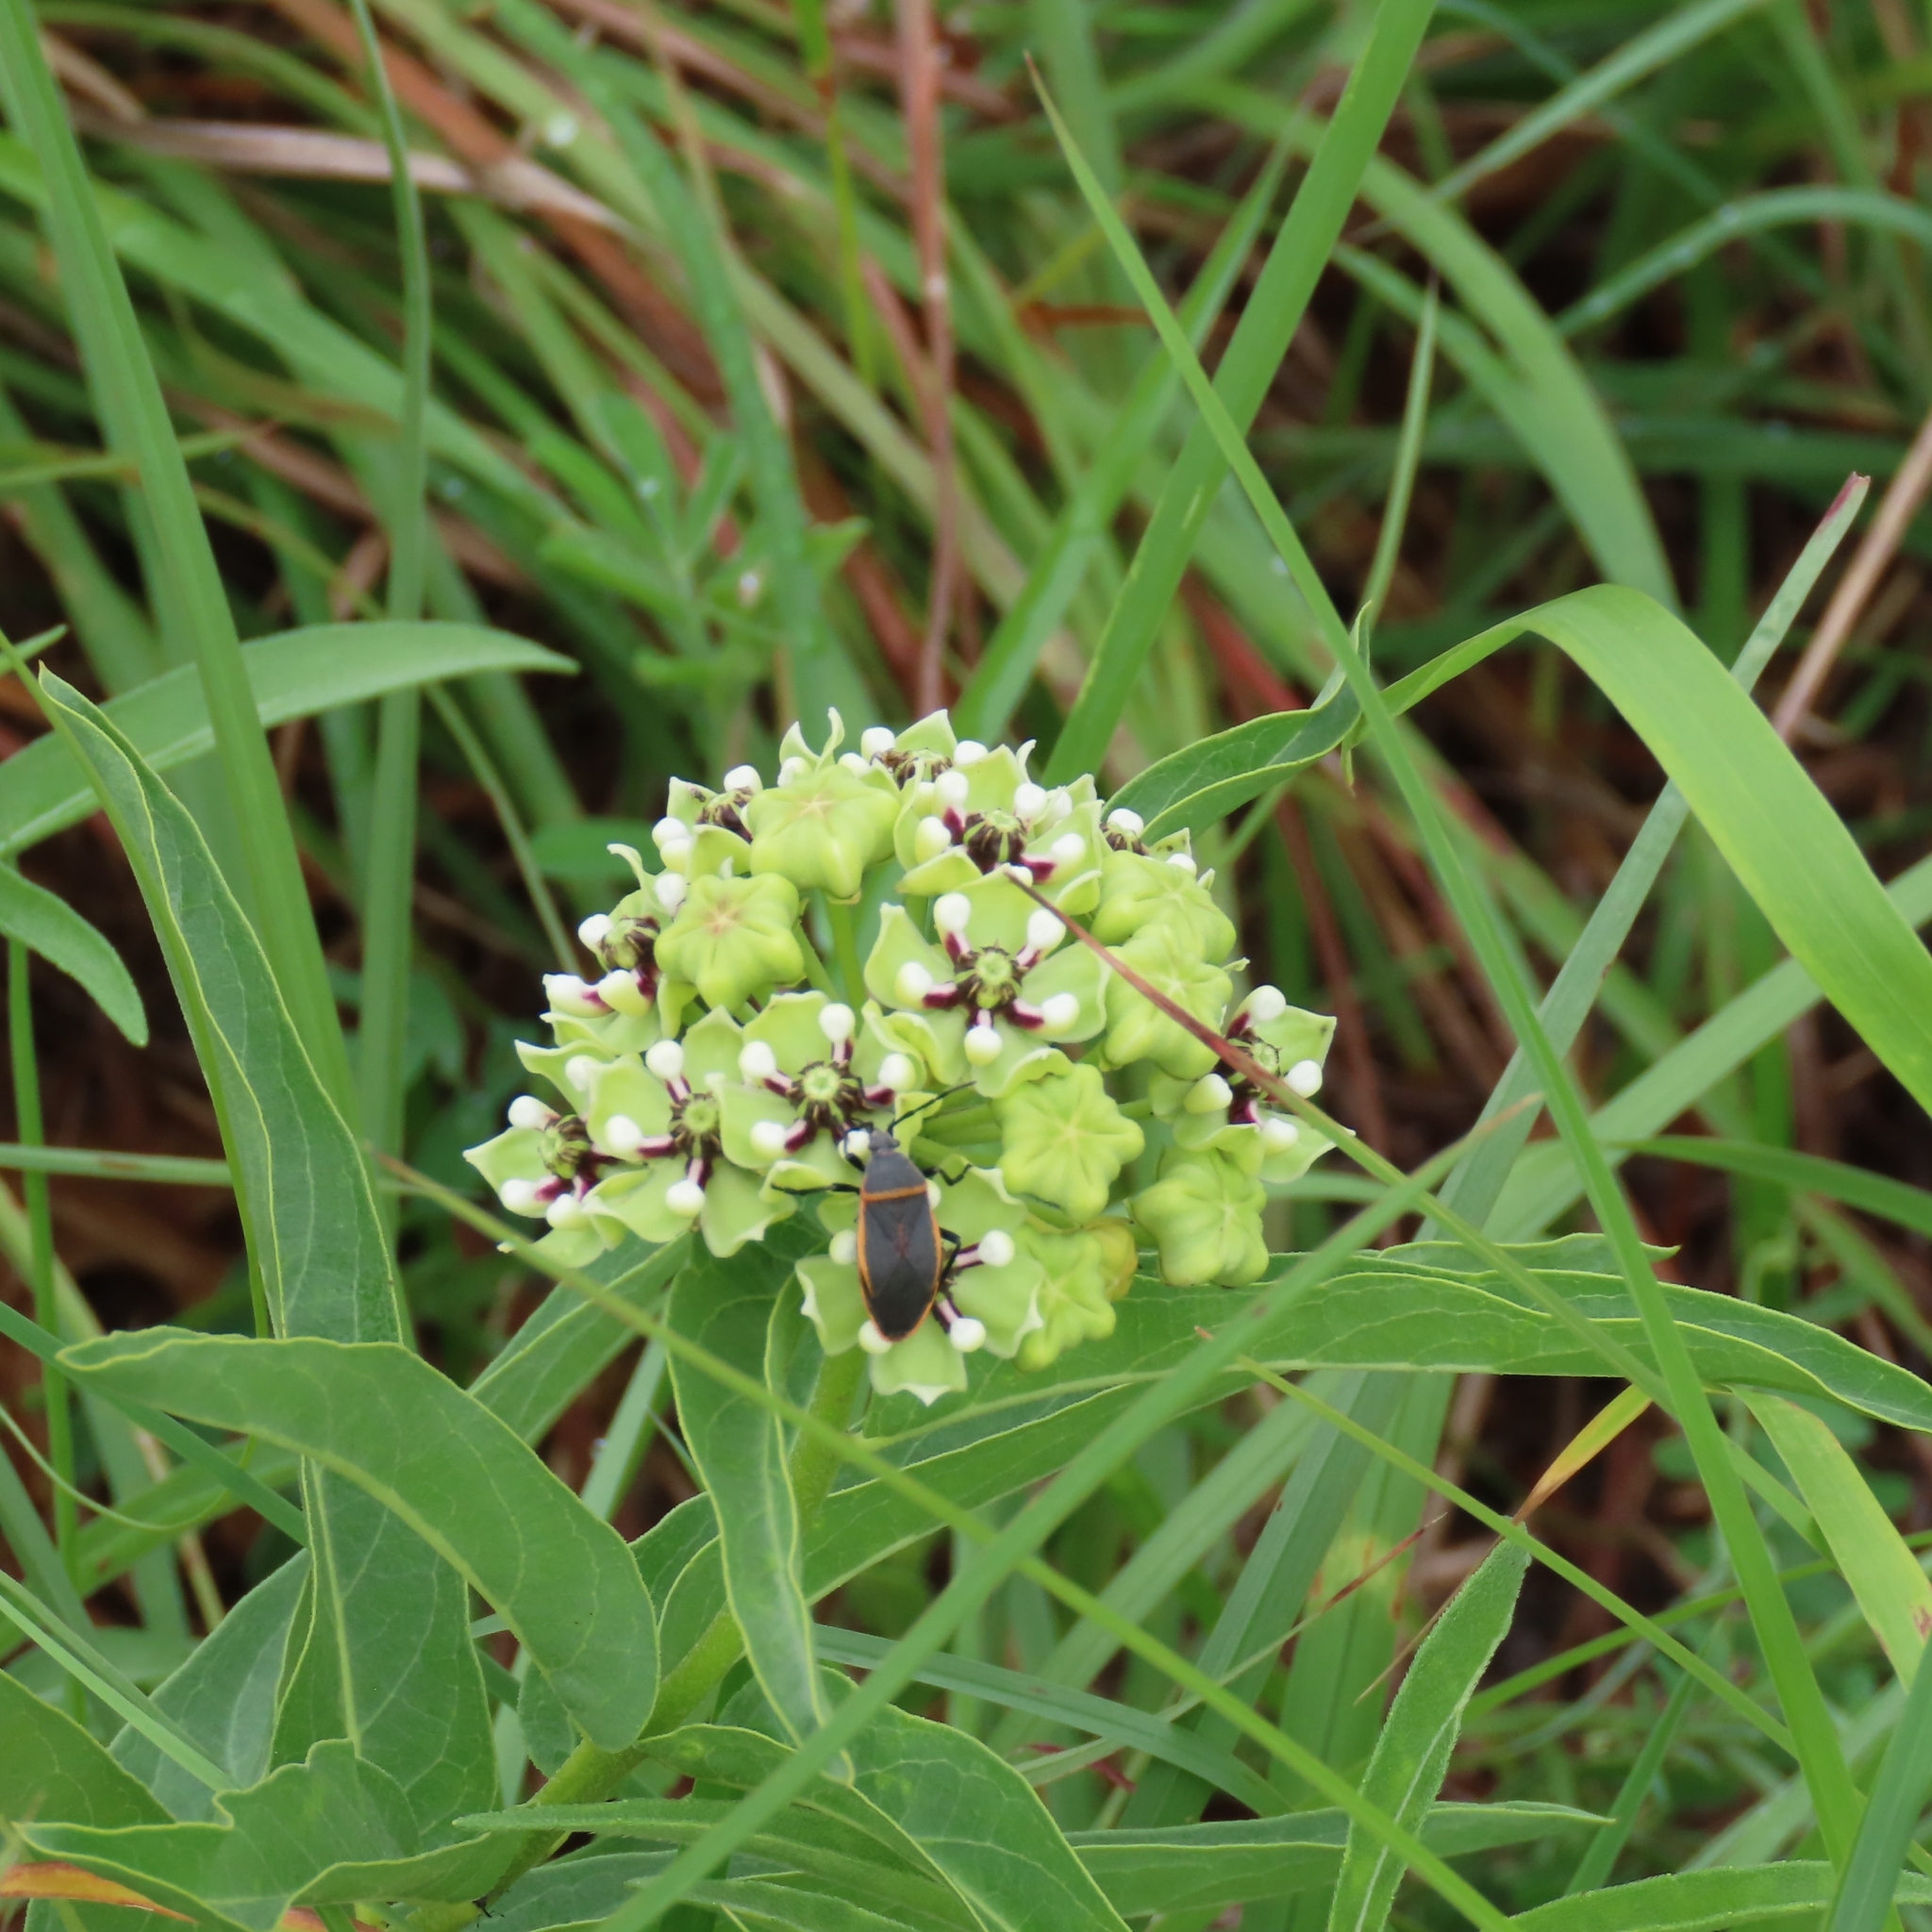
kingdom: Plantae
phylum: Tracheophyta
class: Magnoliopsida
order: Gentianales
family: Apocynaceae
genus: Asclepias
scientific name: Asclepias asperula
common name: Antelope horns
